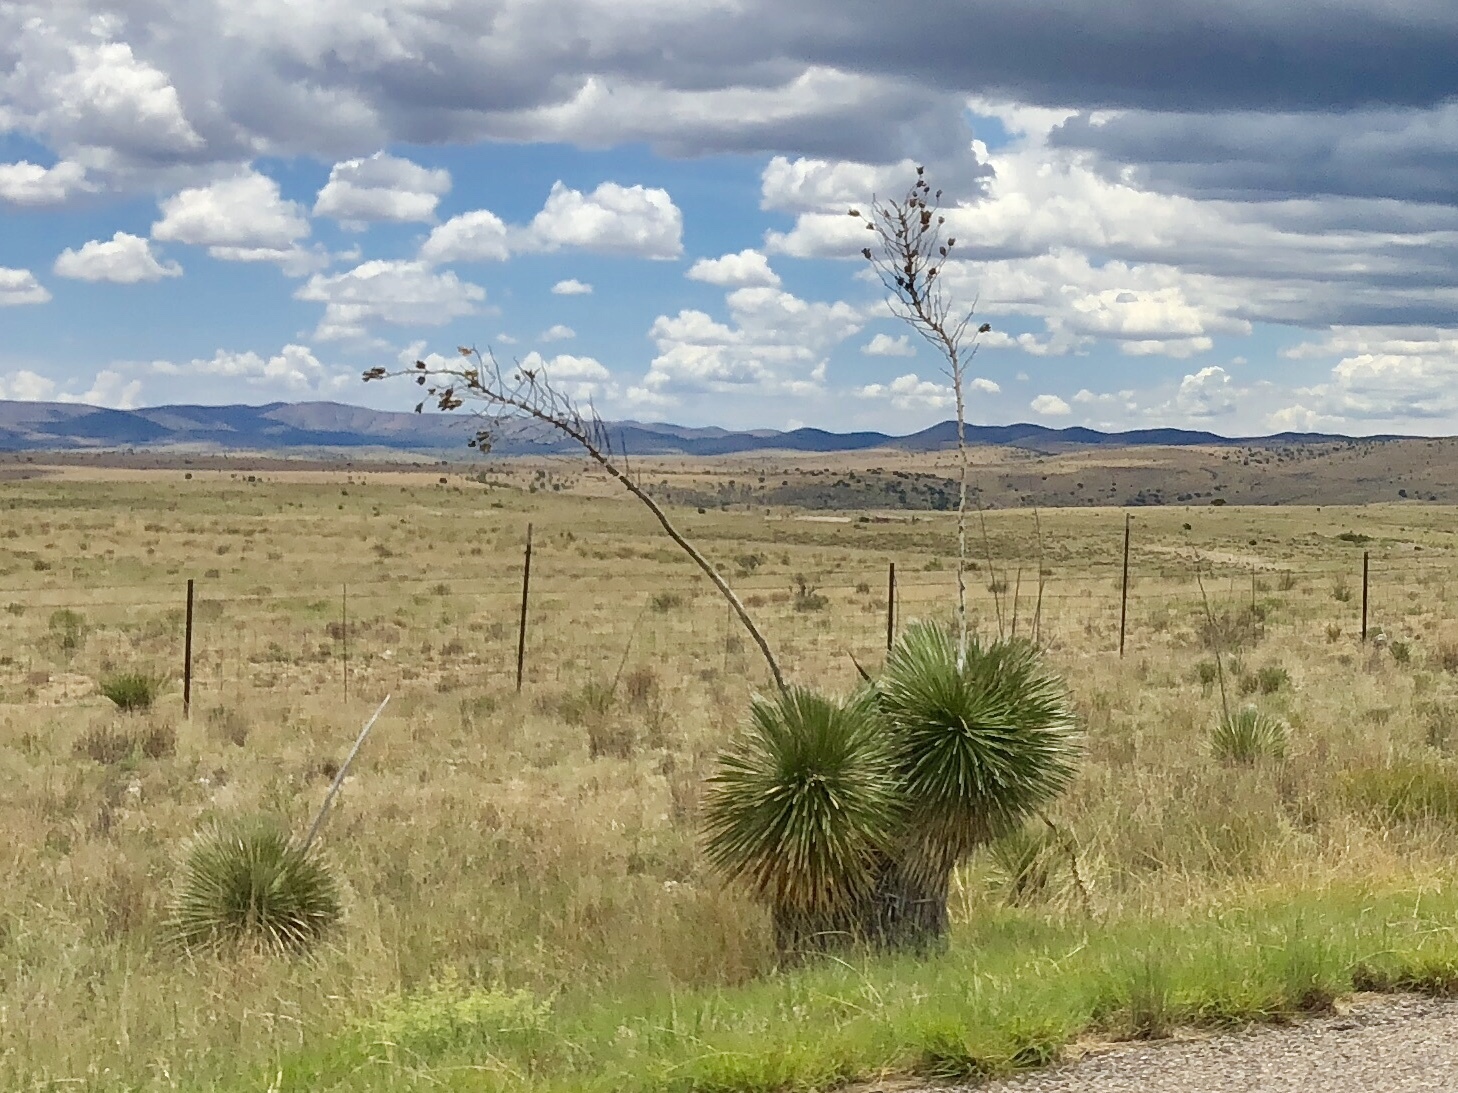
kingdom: Plantae
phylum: Tracheophyta
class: Liliopsida
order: Asparagales
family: Asparagaceae
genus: Yucca
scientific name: Yucca elata
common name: Palmella
